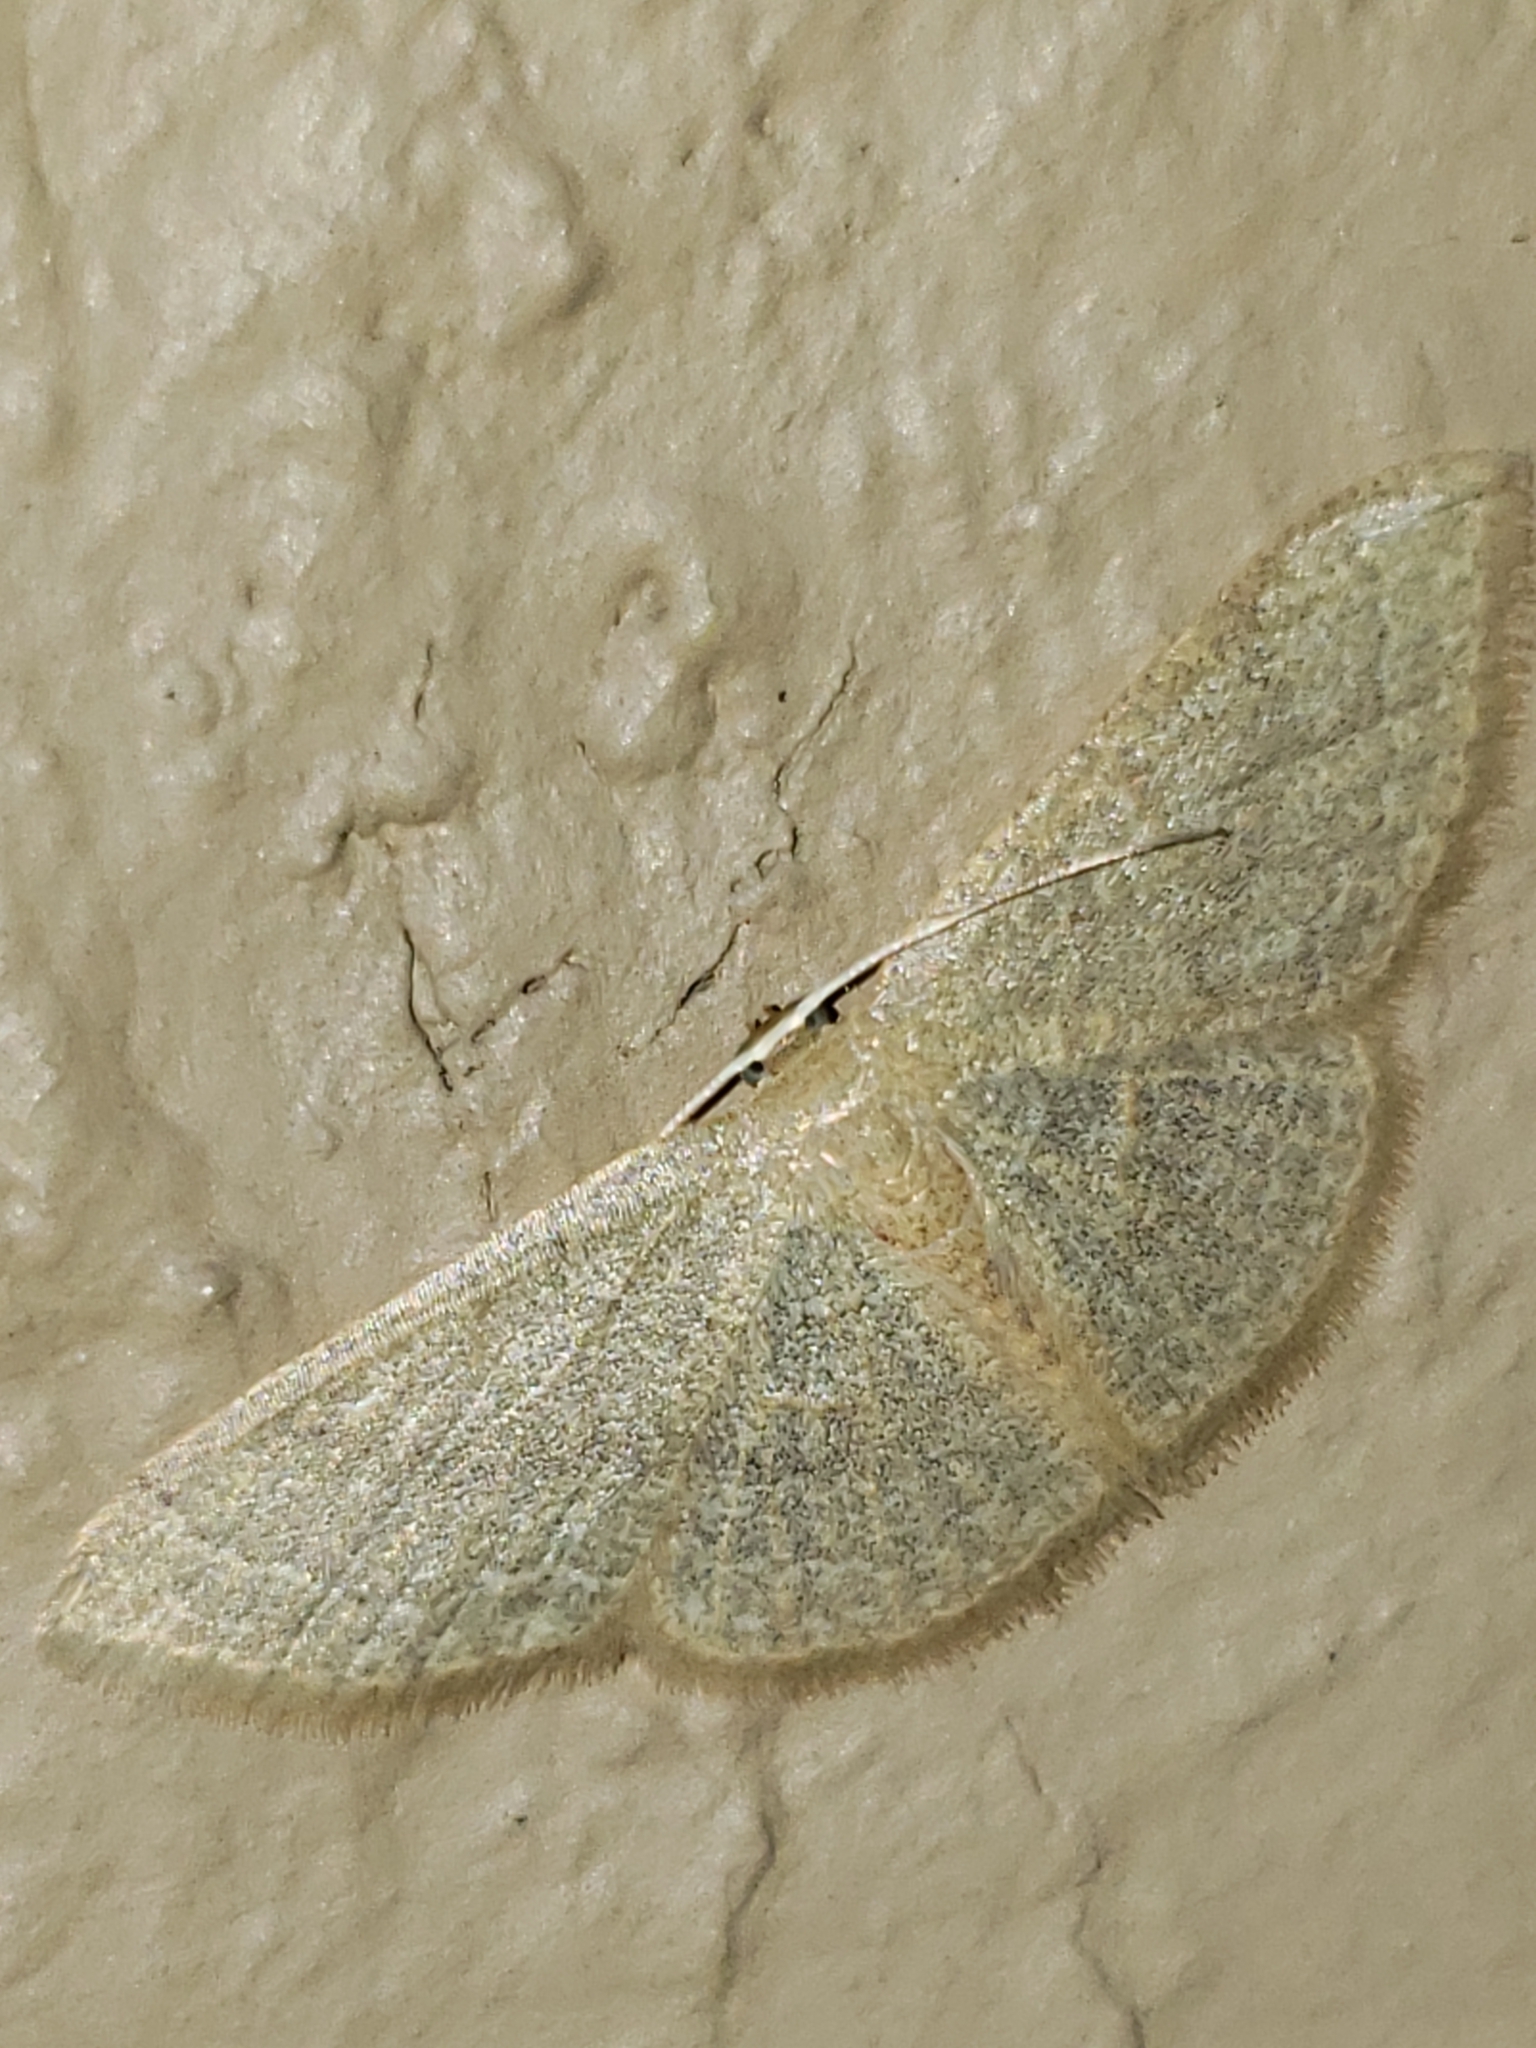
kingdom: Animalia
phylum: Arthropoda
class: Insecta
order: Lepidoptera
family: Geometridae
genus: Pleuroprucha
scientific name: Pleuroprucha insulsaria
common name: Common tan wave
